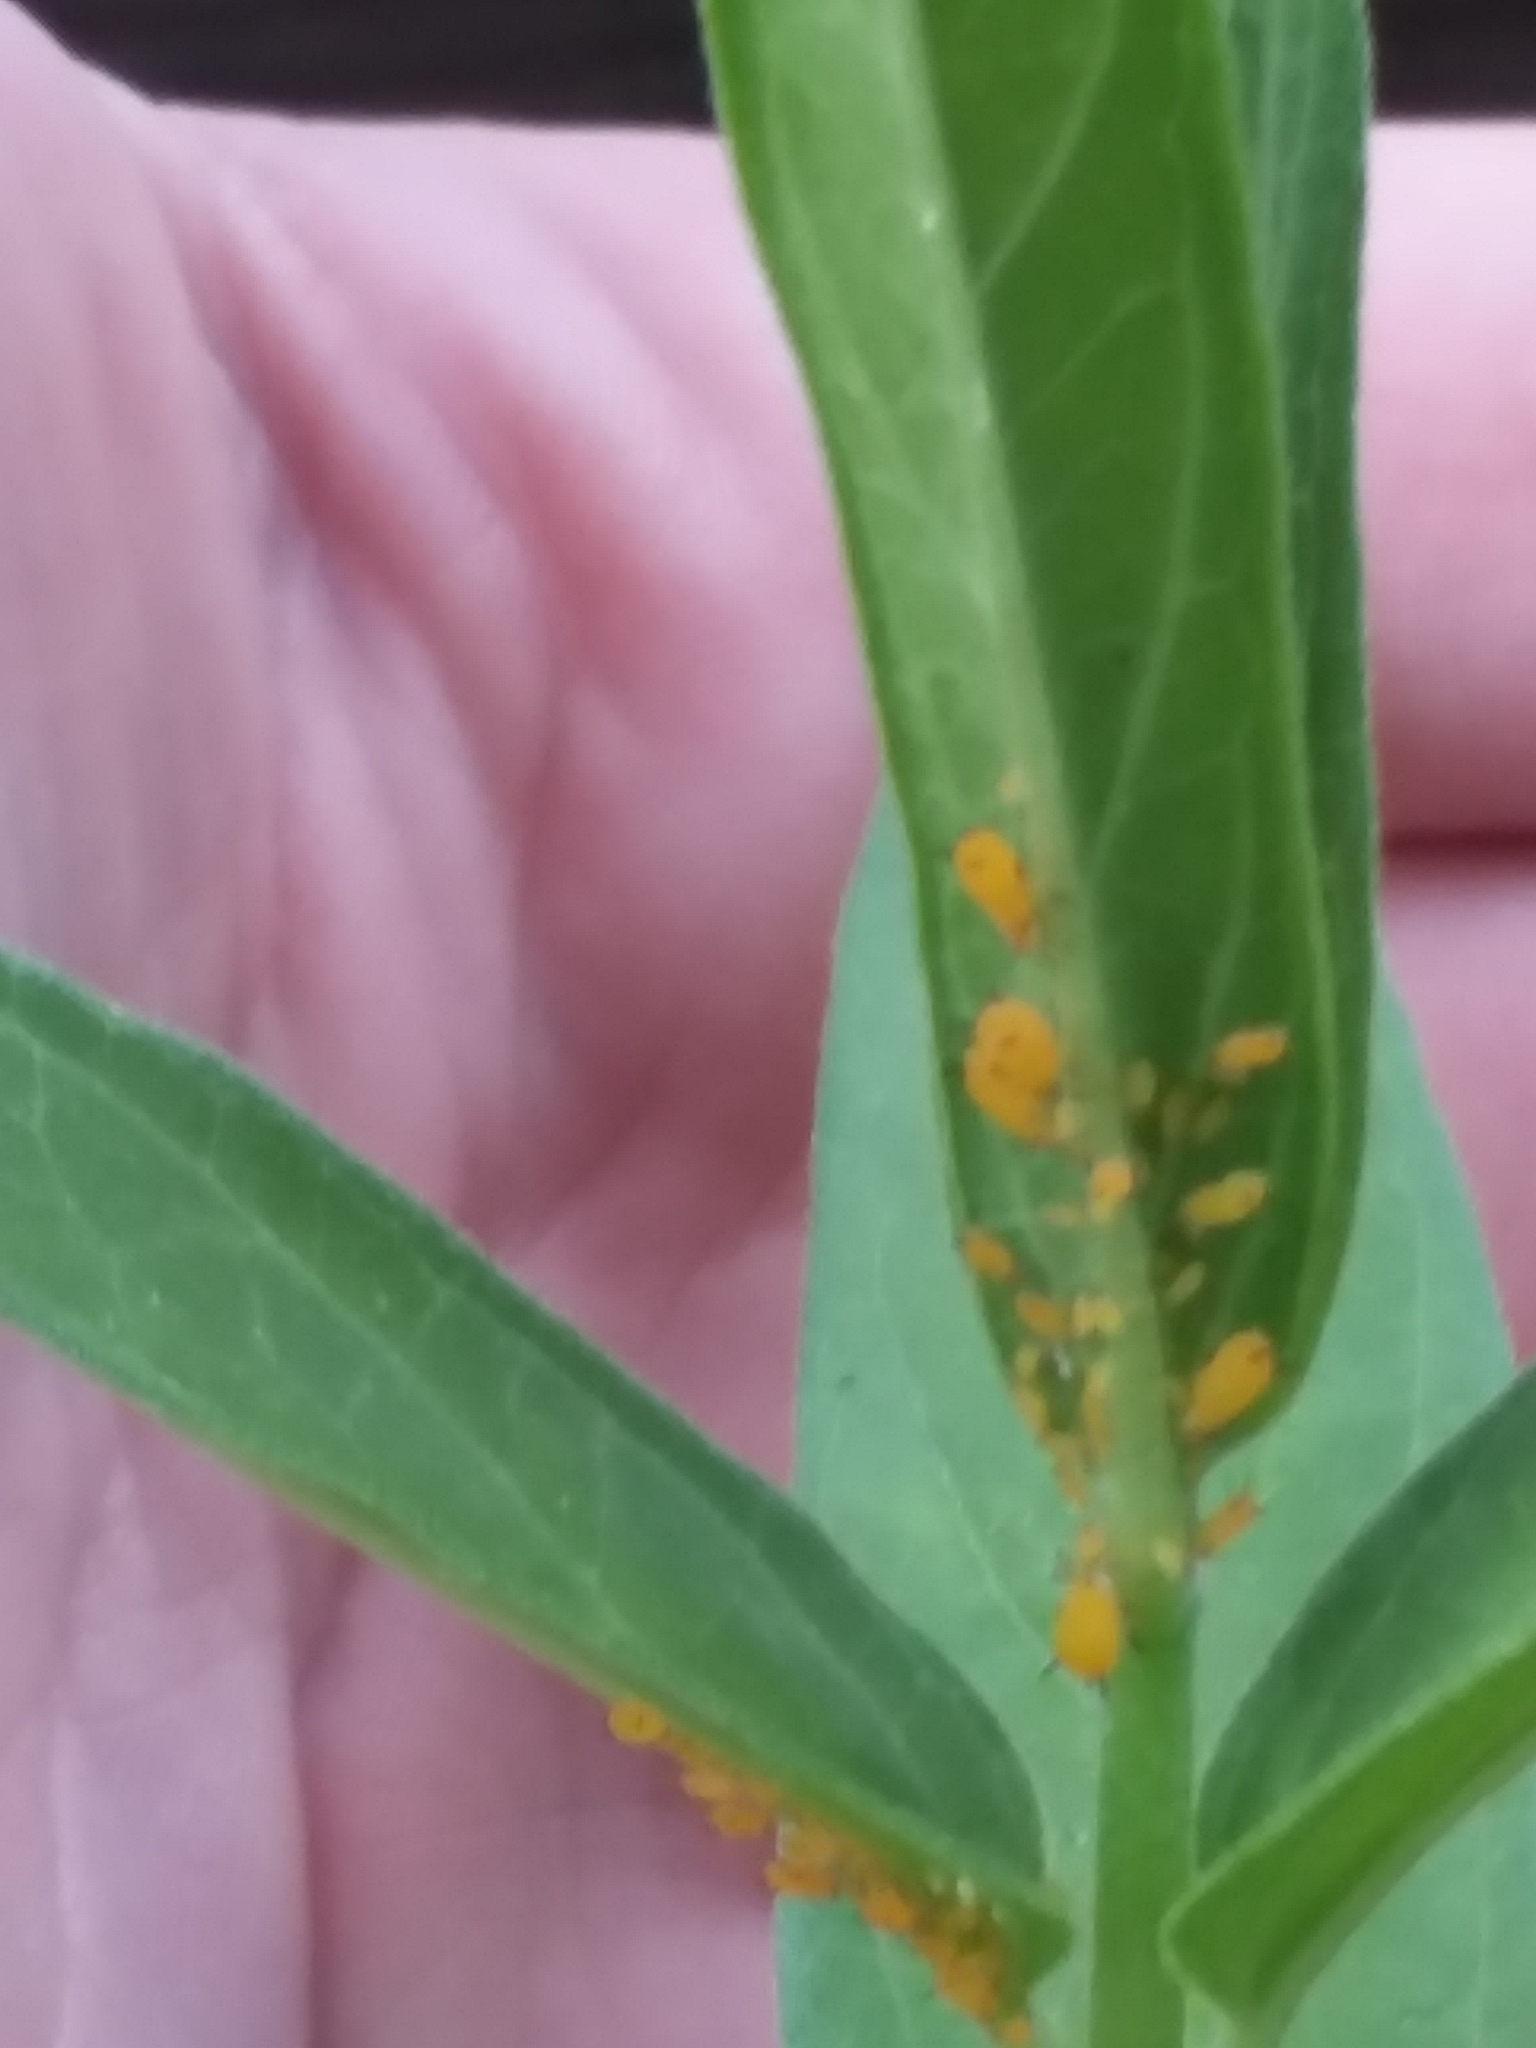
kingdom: Animalia
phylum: Arthropoda
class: Insecta
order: Hemiptera
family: Aphididae
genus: Aphis
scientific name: Aphis nerii
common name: Oleander aphid
